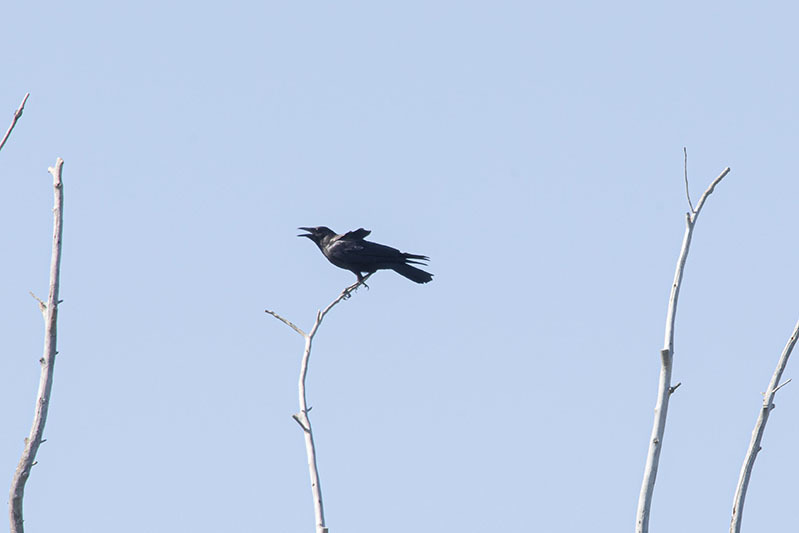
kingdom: Animalia
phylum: Chordata
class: Aves
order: Passeriformes
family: Corvidae
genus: Corvus
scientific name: Corvus brachyrhynchos
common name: American crow
